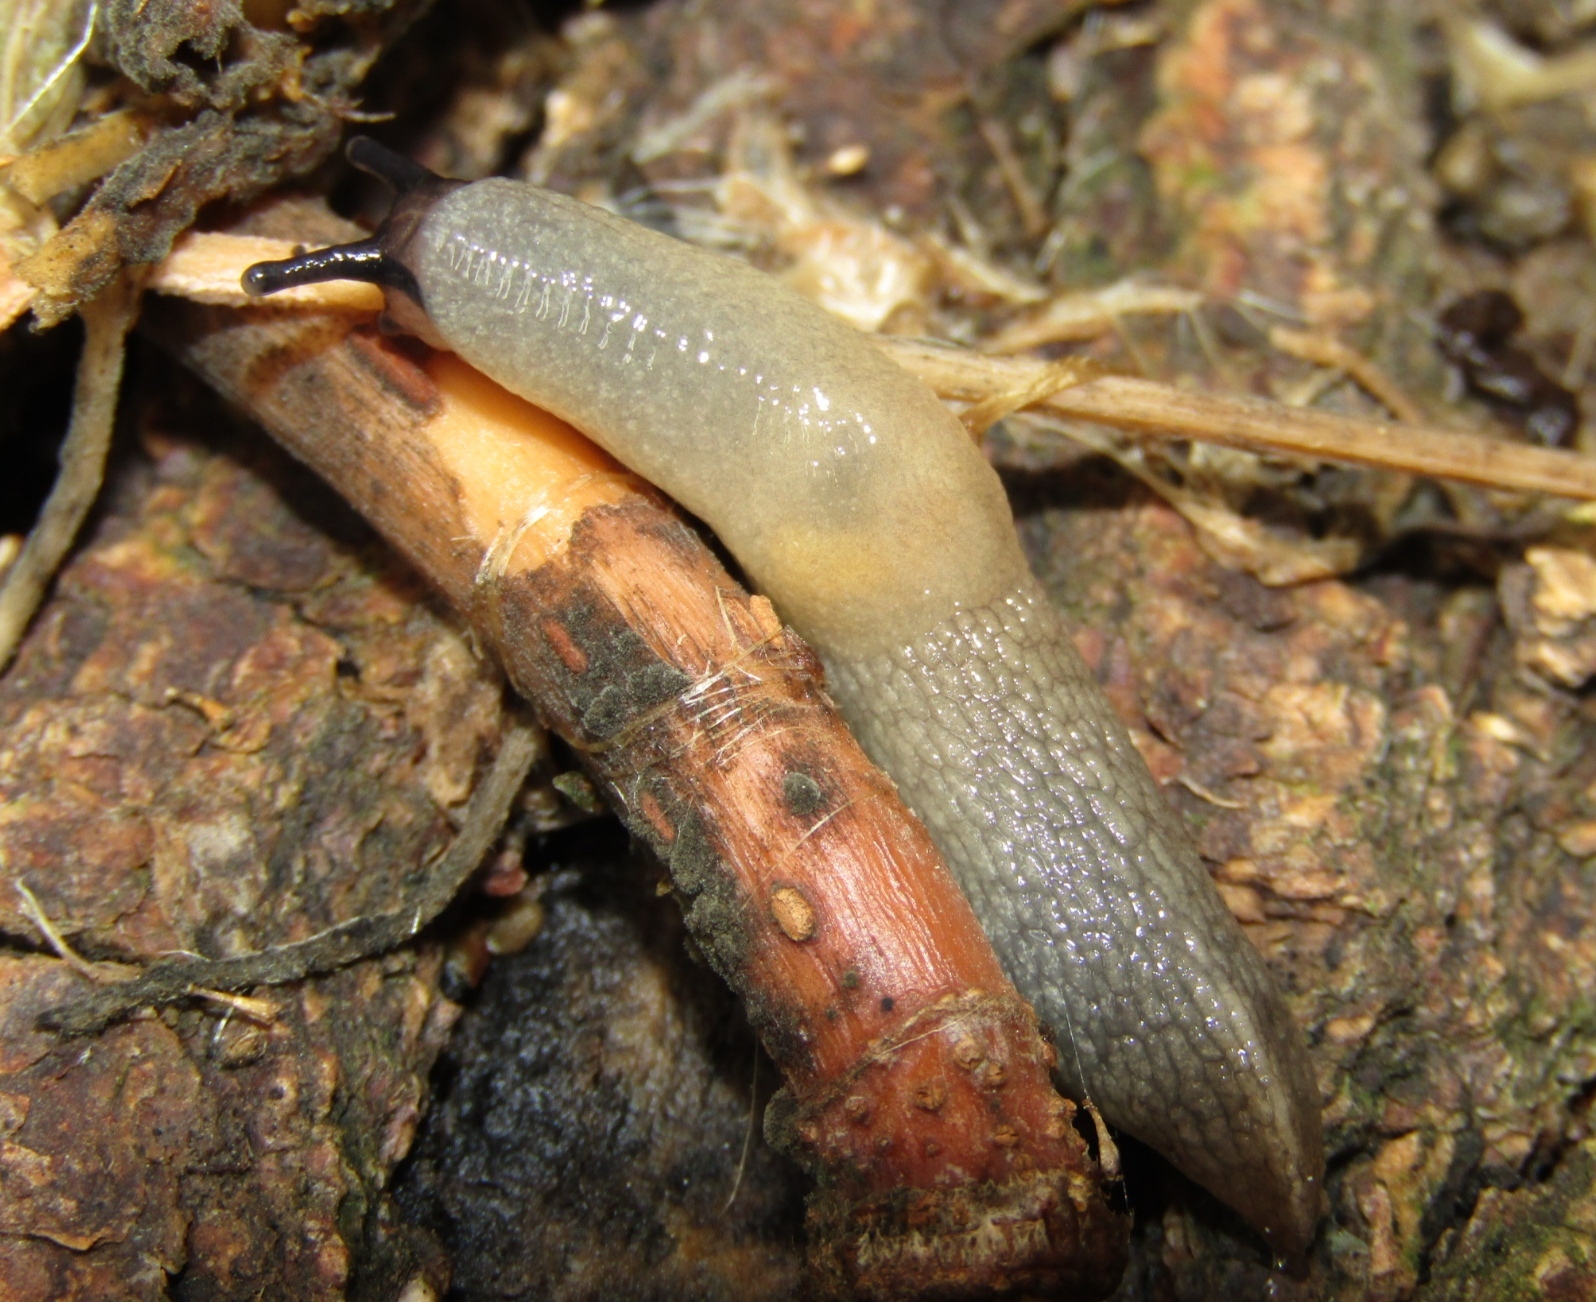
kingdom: Animalia
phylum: Mollusca
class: Gastropoda
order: Stylommatophora
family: Agriolimacidae
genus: Krynickillus
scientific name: Krynickillus melanocephalus
